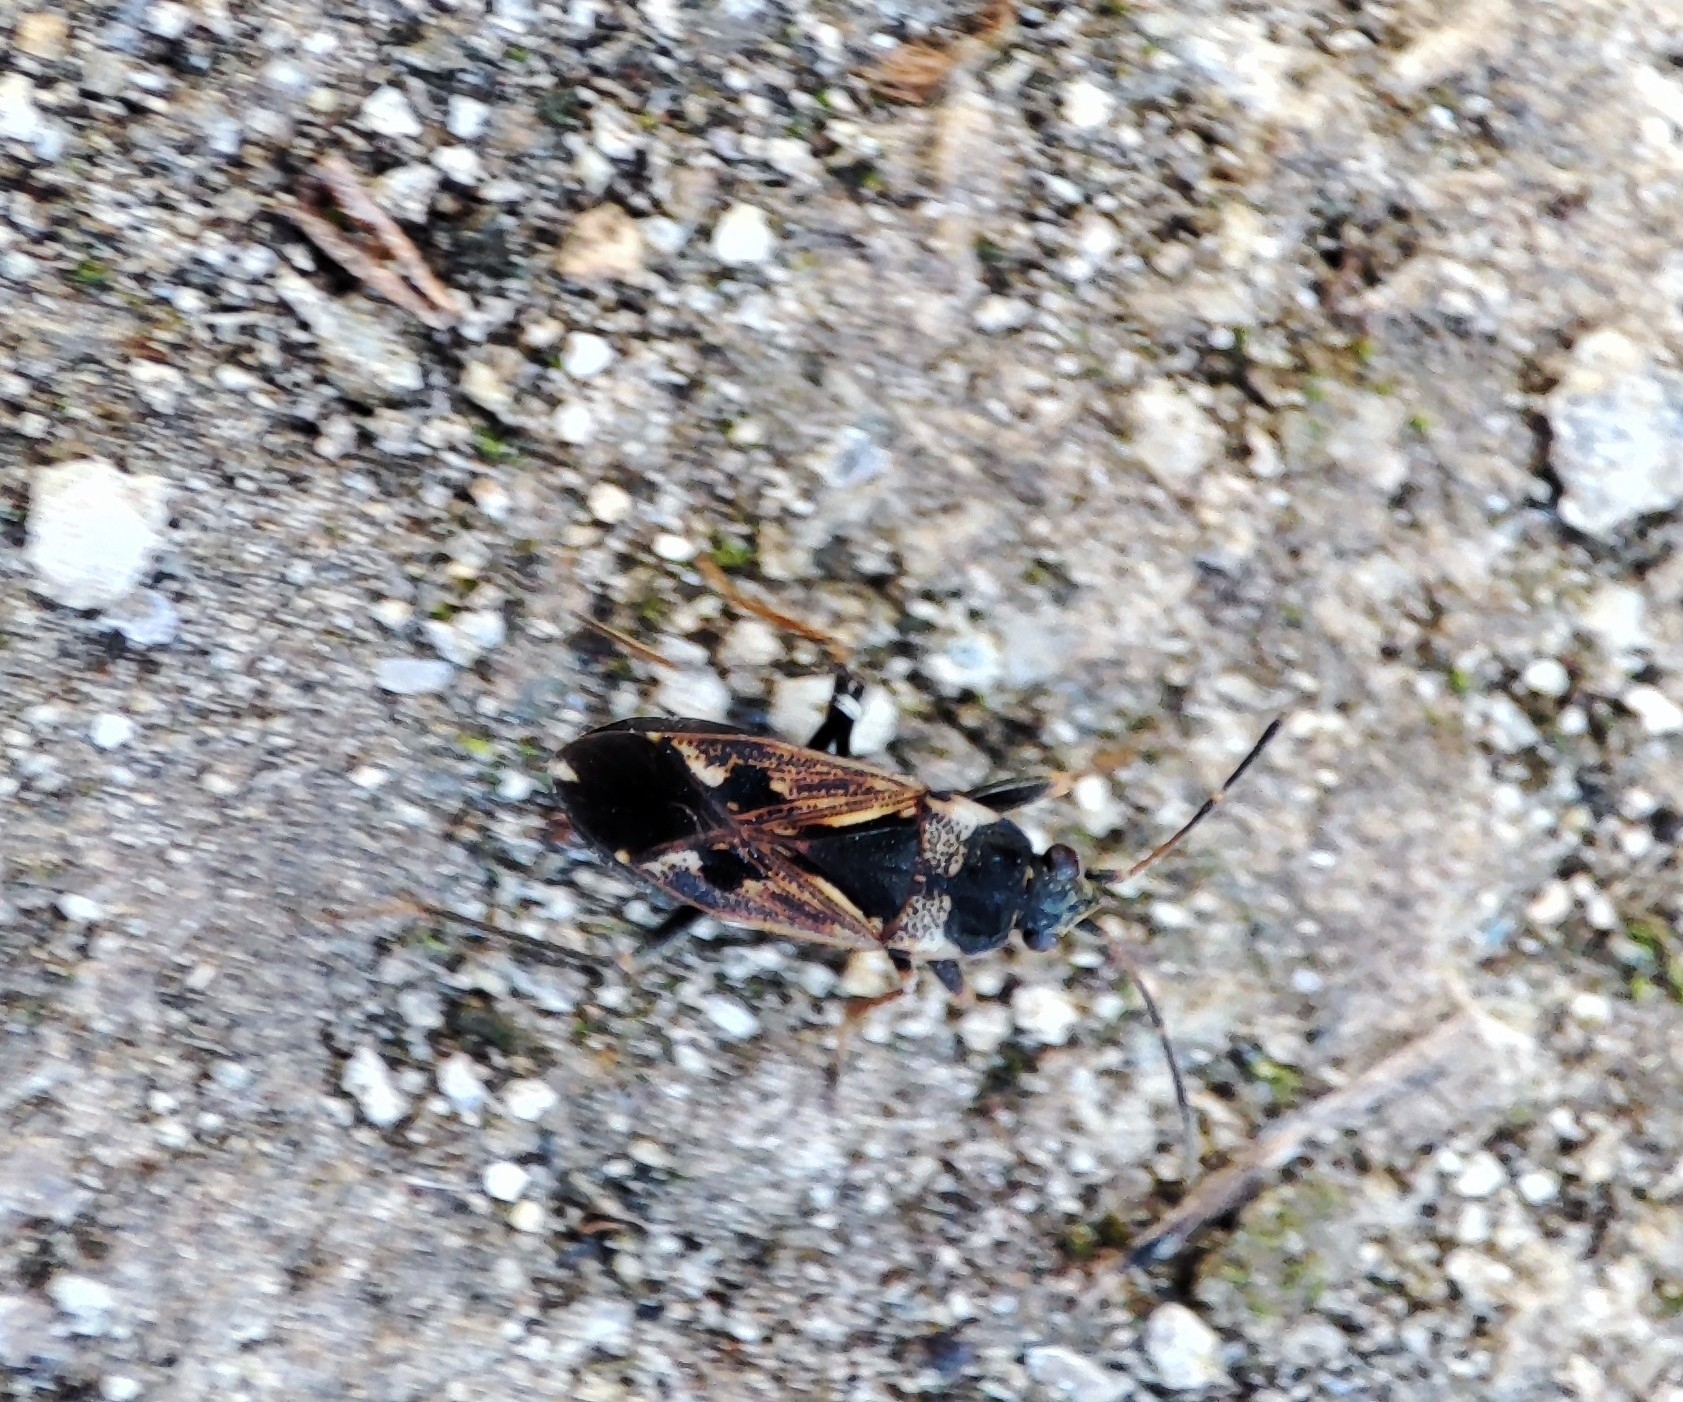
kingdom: Animalia
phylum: Arthropoda
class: Insecta
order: Hemiptera
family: Rhyparochromidae
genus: Rhyparochromus
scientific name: Rhyparochromus vulgaris
